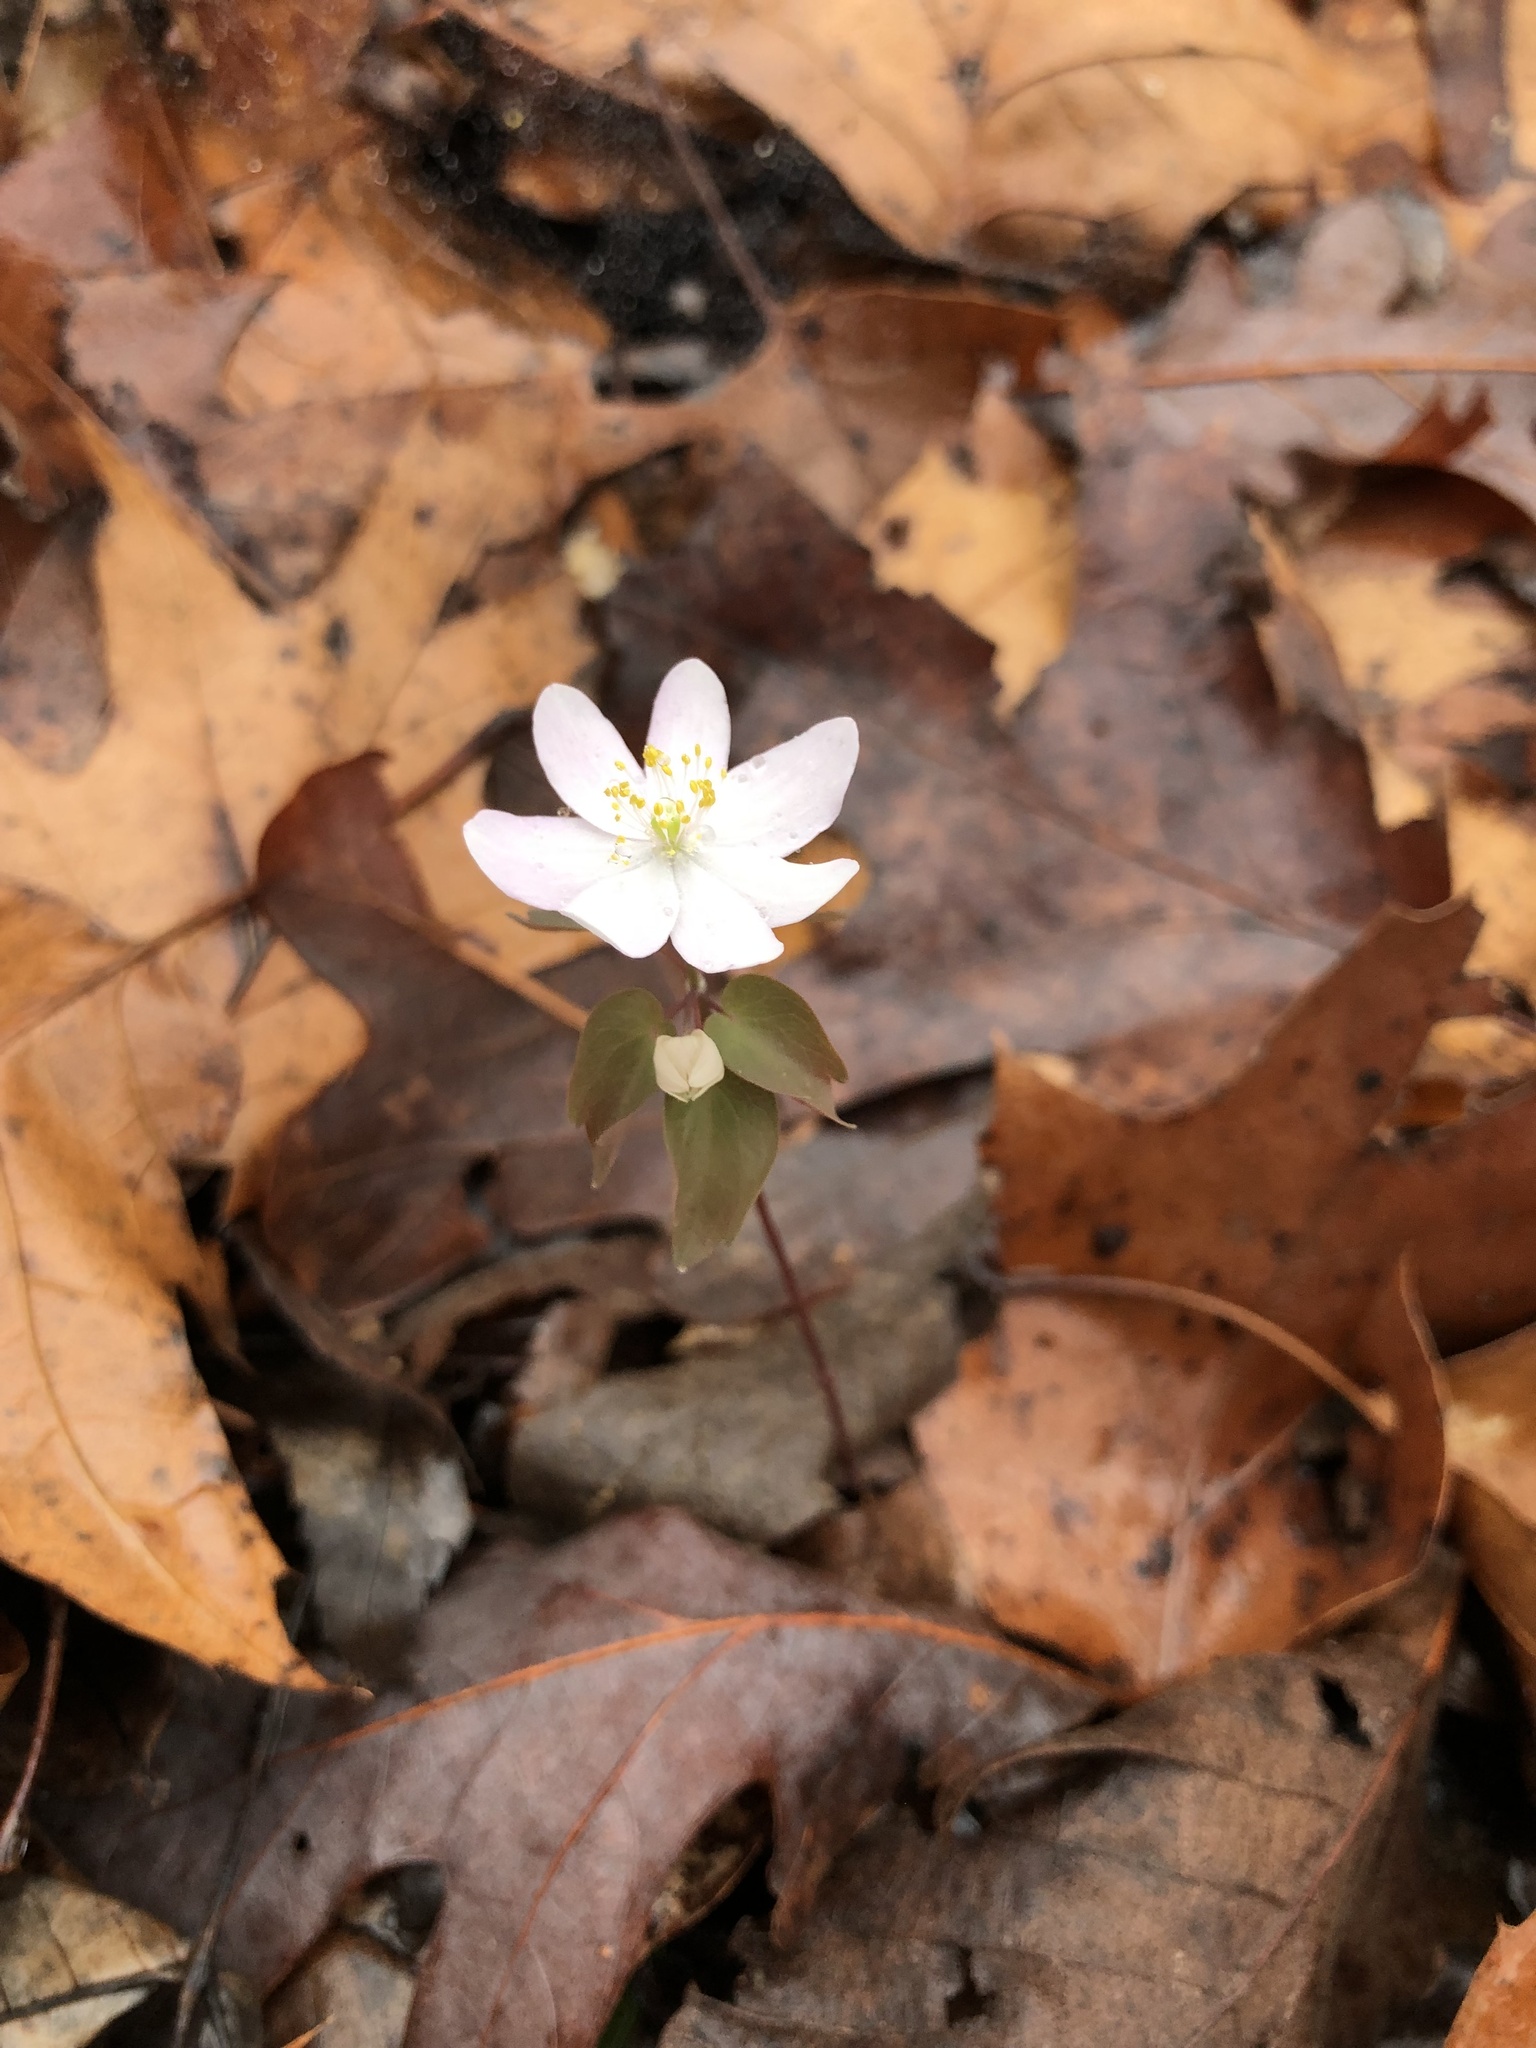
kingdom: Plantae
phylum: Tracheophyta
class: Magnoliopsida
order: Ranunculales
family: Ranunculaceae
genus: Thalictrum
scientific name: Thalictrum thalictroides
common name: Rue-anemone
